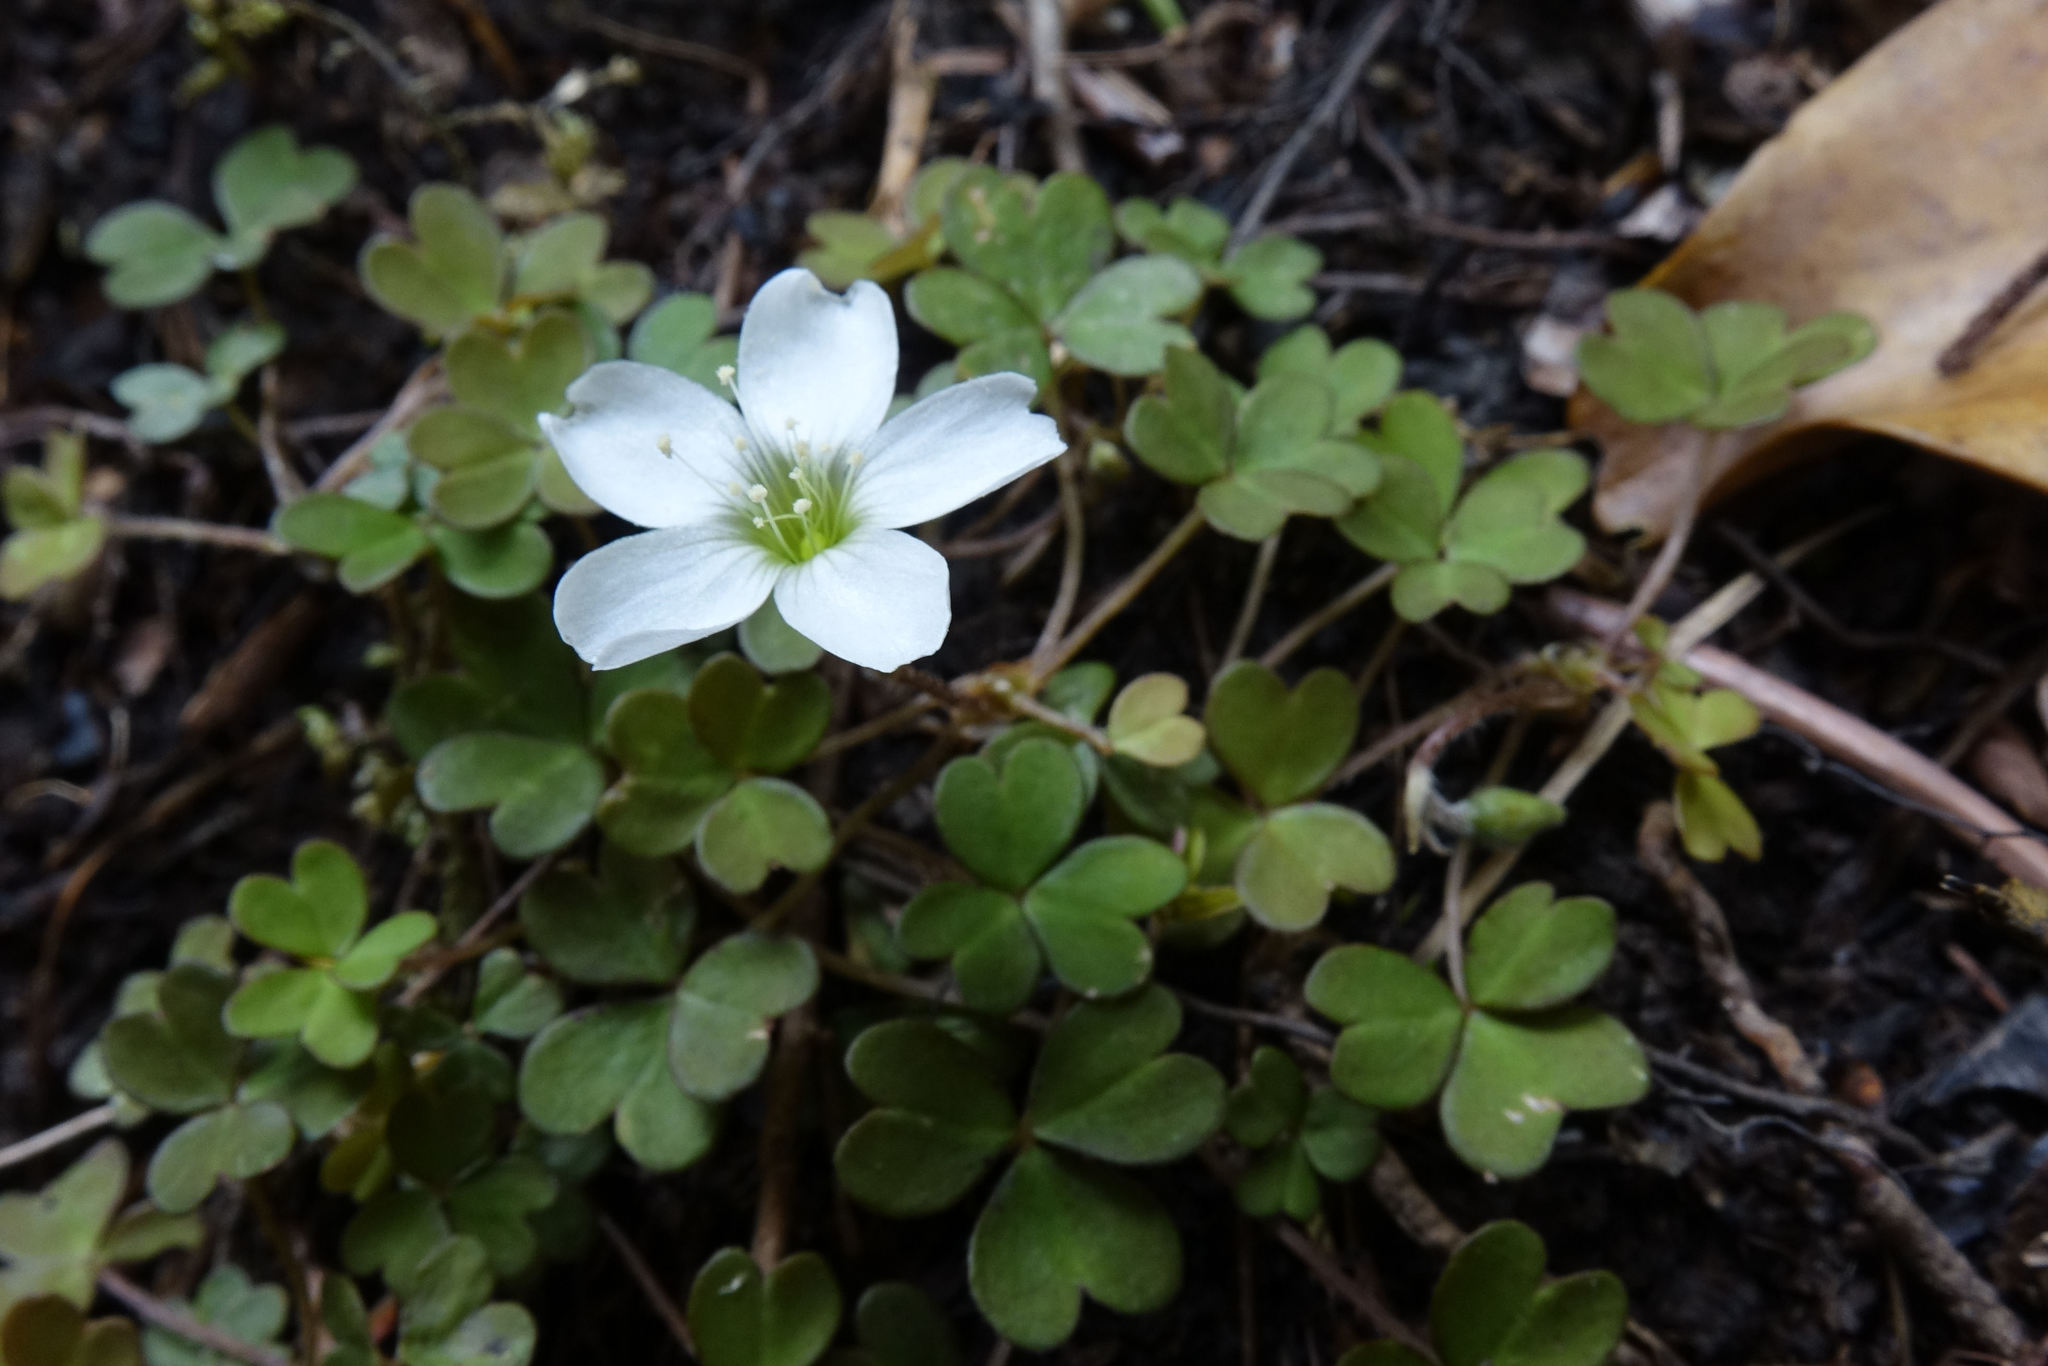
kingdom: Plantae
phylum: Tracheophyta
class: Magnoliopsida
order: Oxalidales
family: Oxalidaceae
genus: Oxalis
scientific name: Oxalis magellanica
